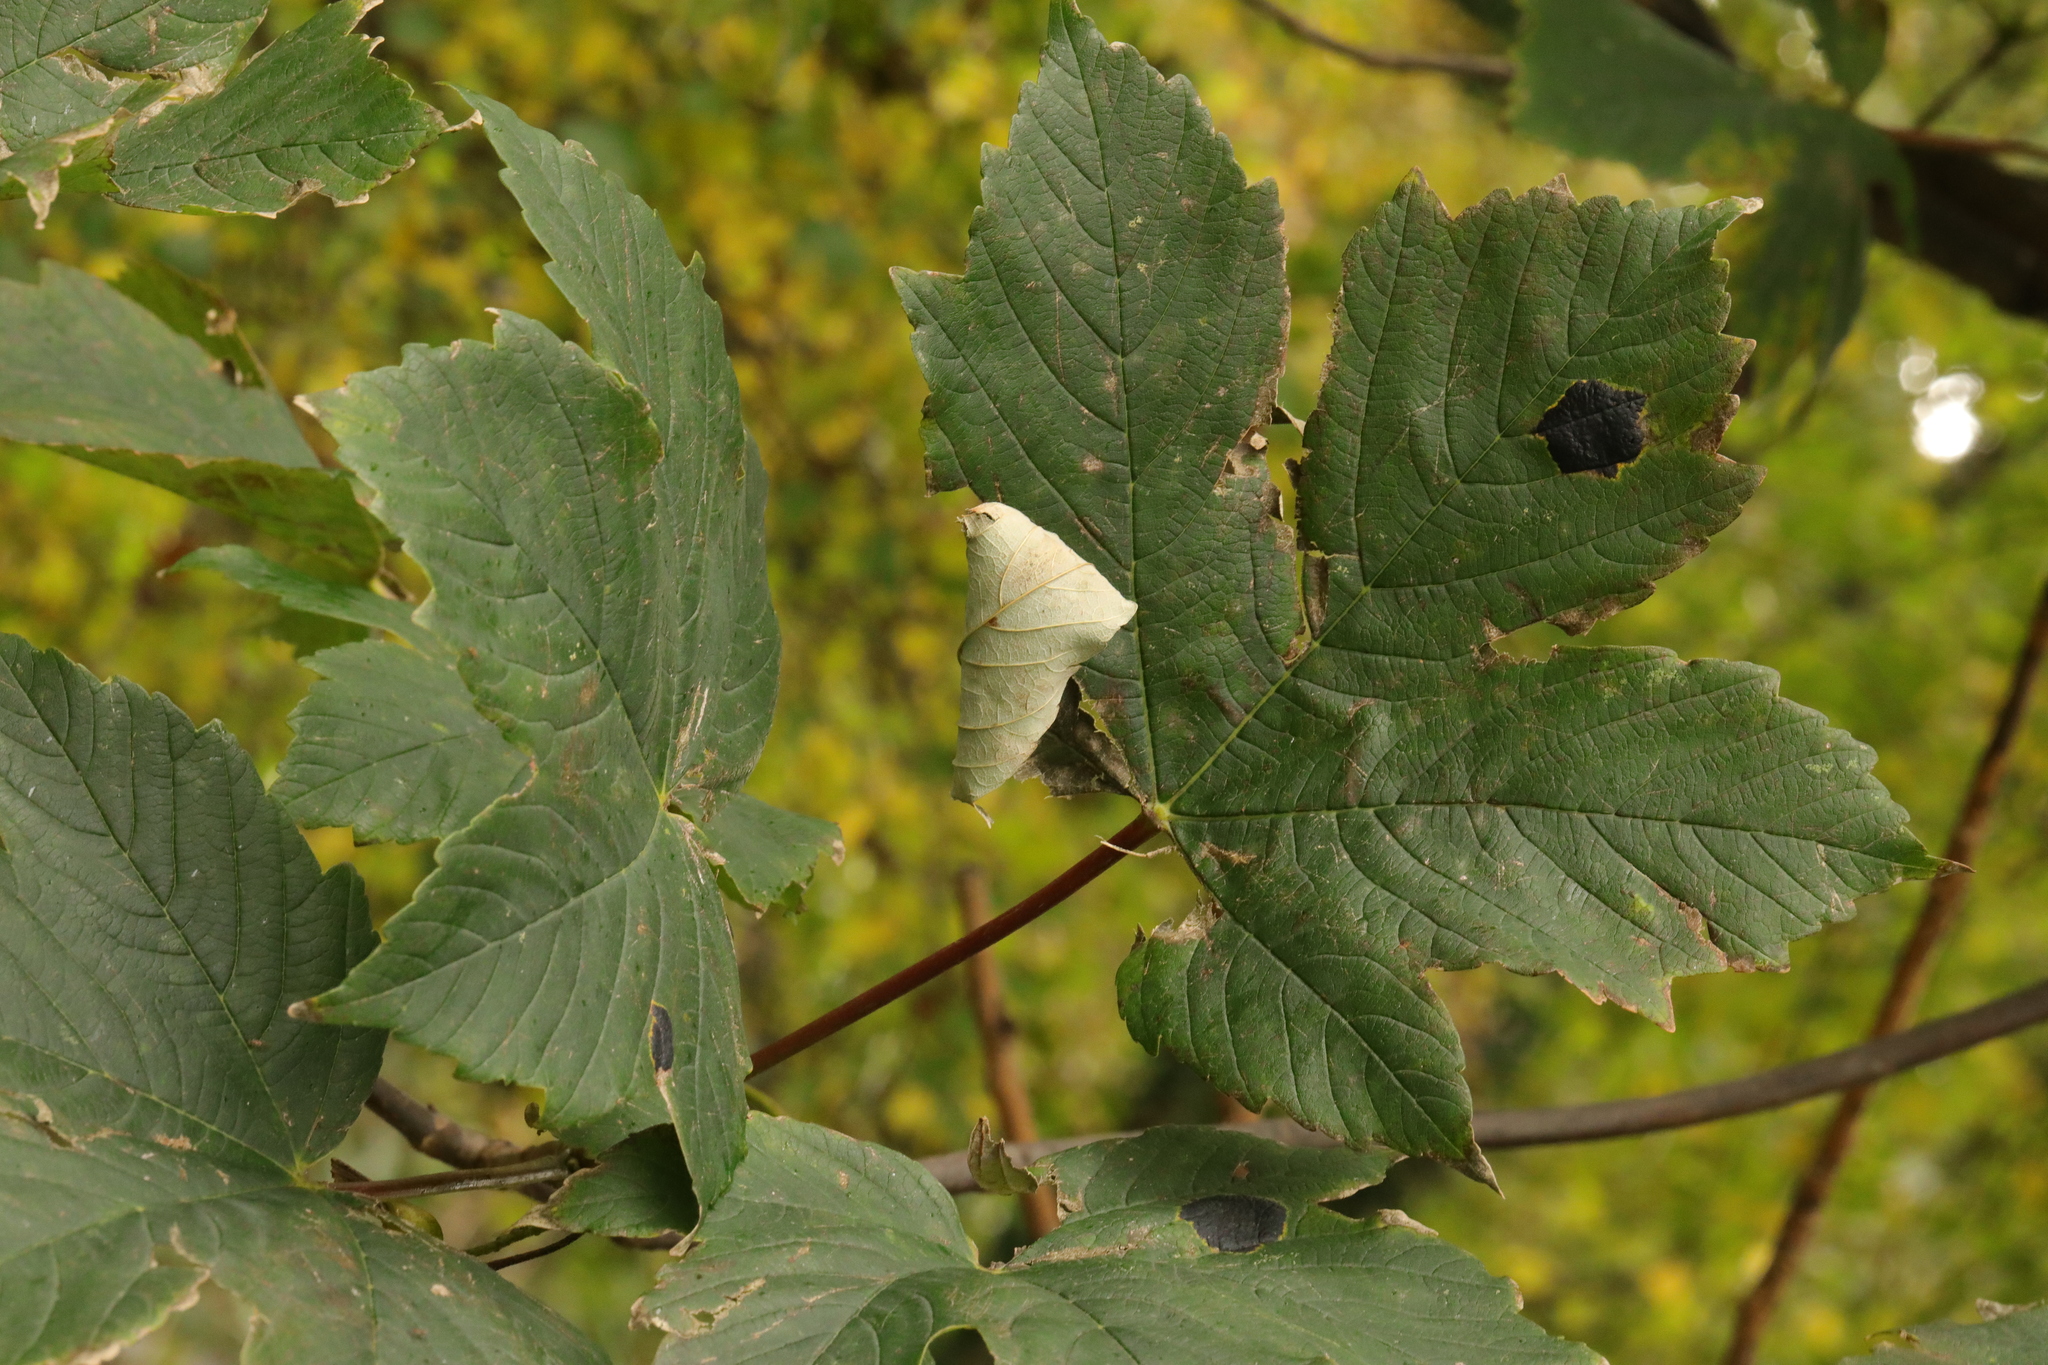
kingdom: Fungi
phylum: Ascomycota
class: Leotiomycetes
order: Rhytismatales
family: Rhytismataceae
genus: Rhytisma
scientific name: Rhytisma acerinum
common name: European tar spot
